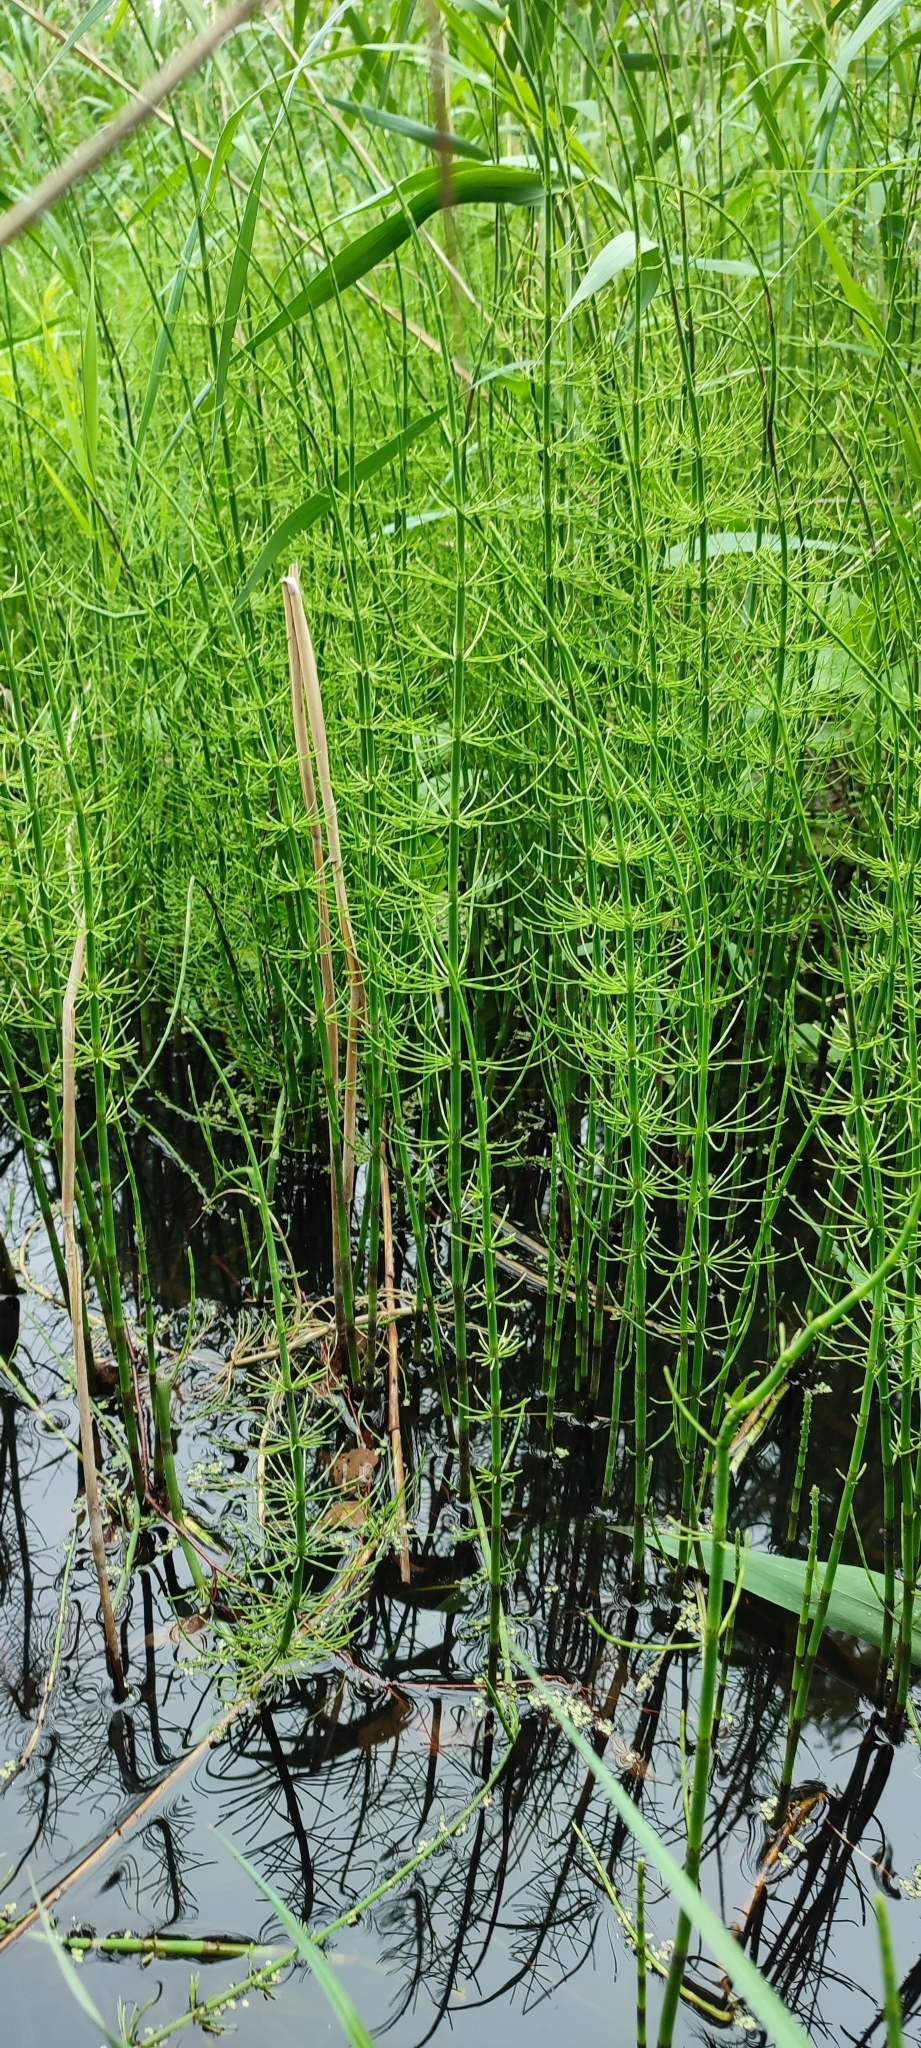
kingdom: Plantae
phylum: Tracheophyta
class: Polypodiopsida
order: Equisetales
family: Equisetaceae
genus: Equisetum
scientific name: Equisetum fluviatile
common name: Water horsetail
